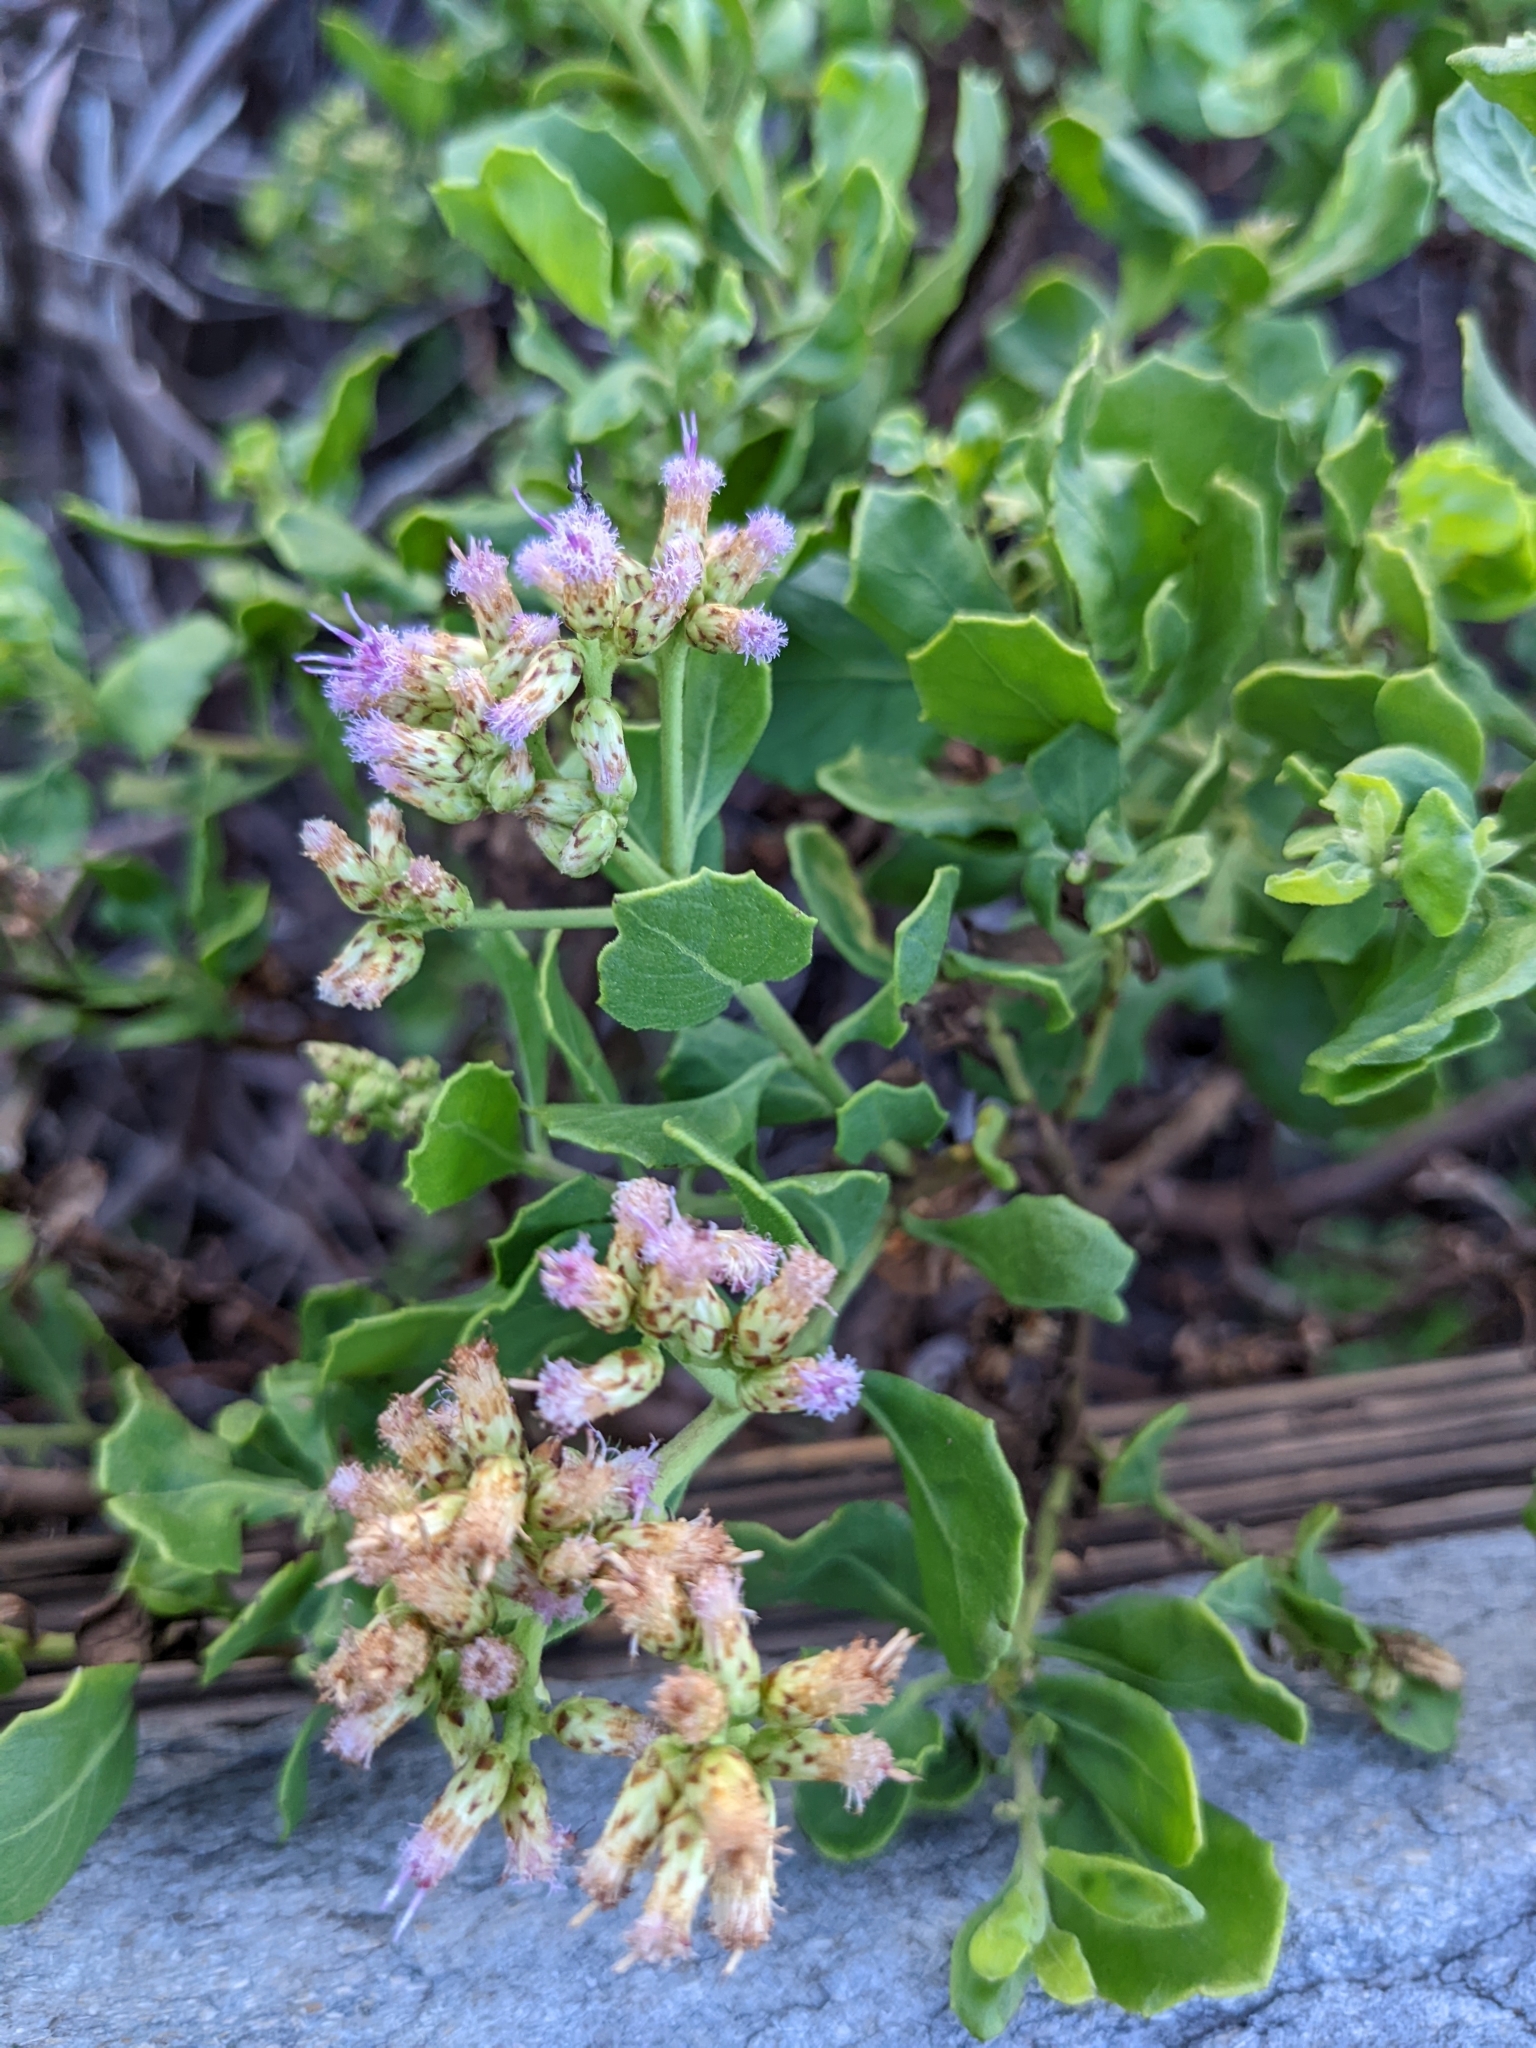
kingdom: Plantae
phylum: Tracheophyta
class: Magnoliopsida
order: Asterales
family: Asteraceae
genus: Pluchea
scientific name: Pluchea indica
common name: Indian fleabane
